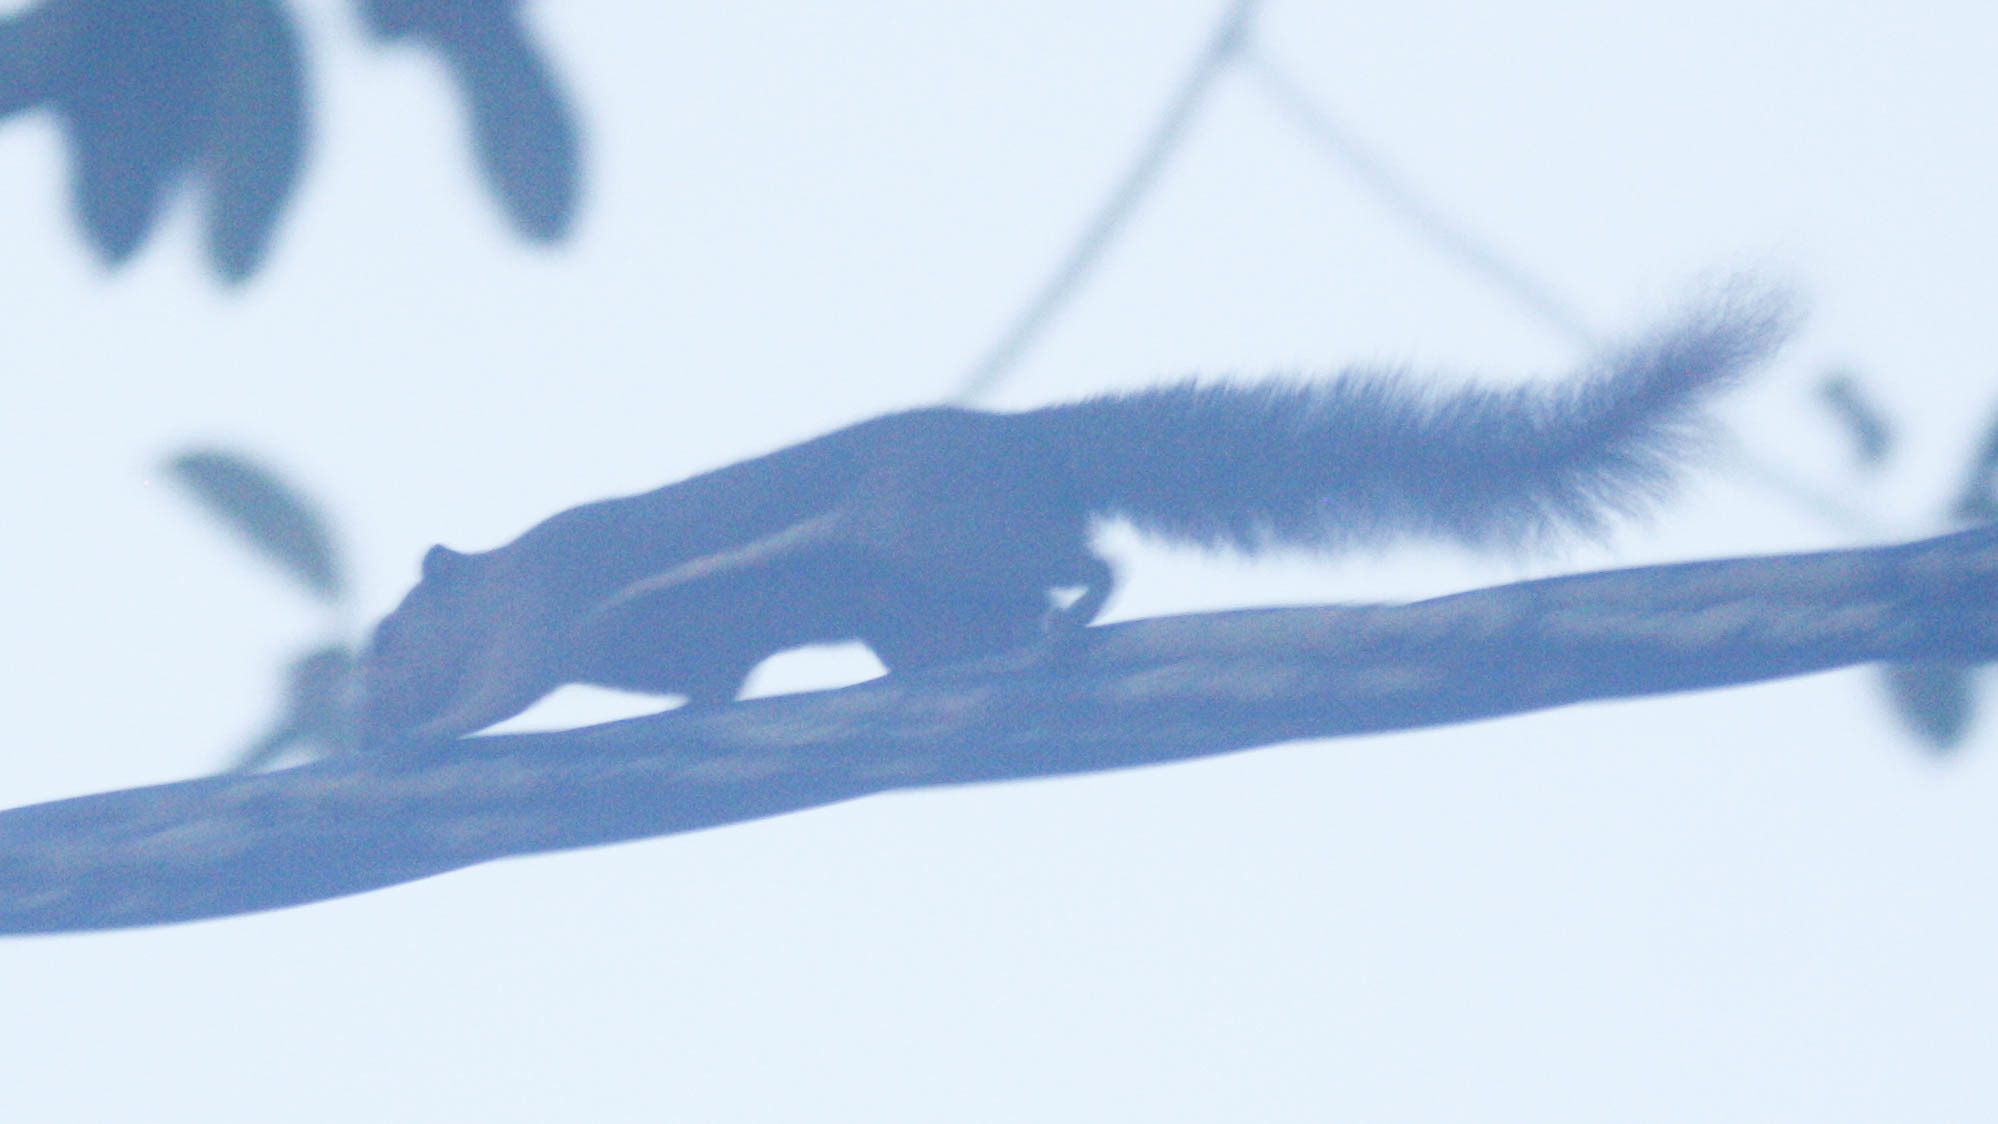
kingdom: Animalia
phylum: Chordata
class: Mammalia
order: Rodentia
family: Sciuridae
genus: Callosciurus
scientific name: Callosciurus notatus
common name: Plantain squirrel
